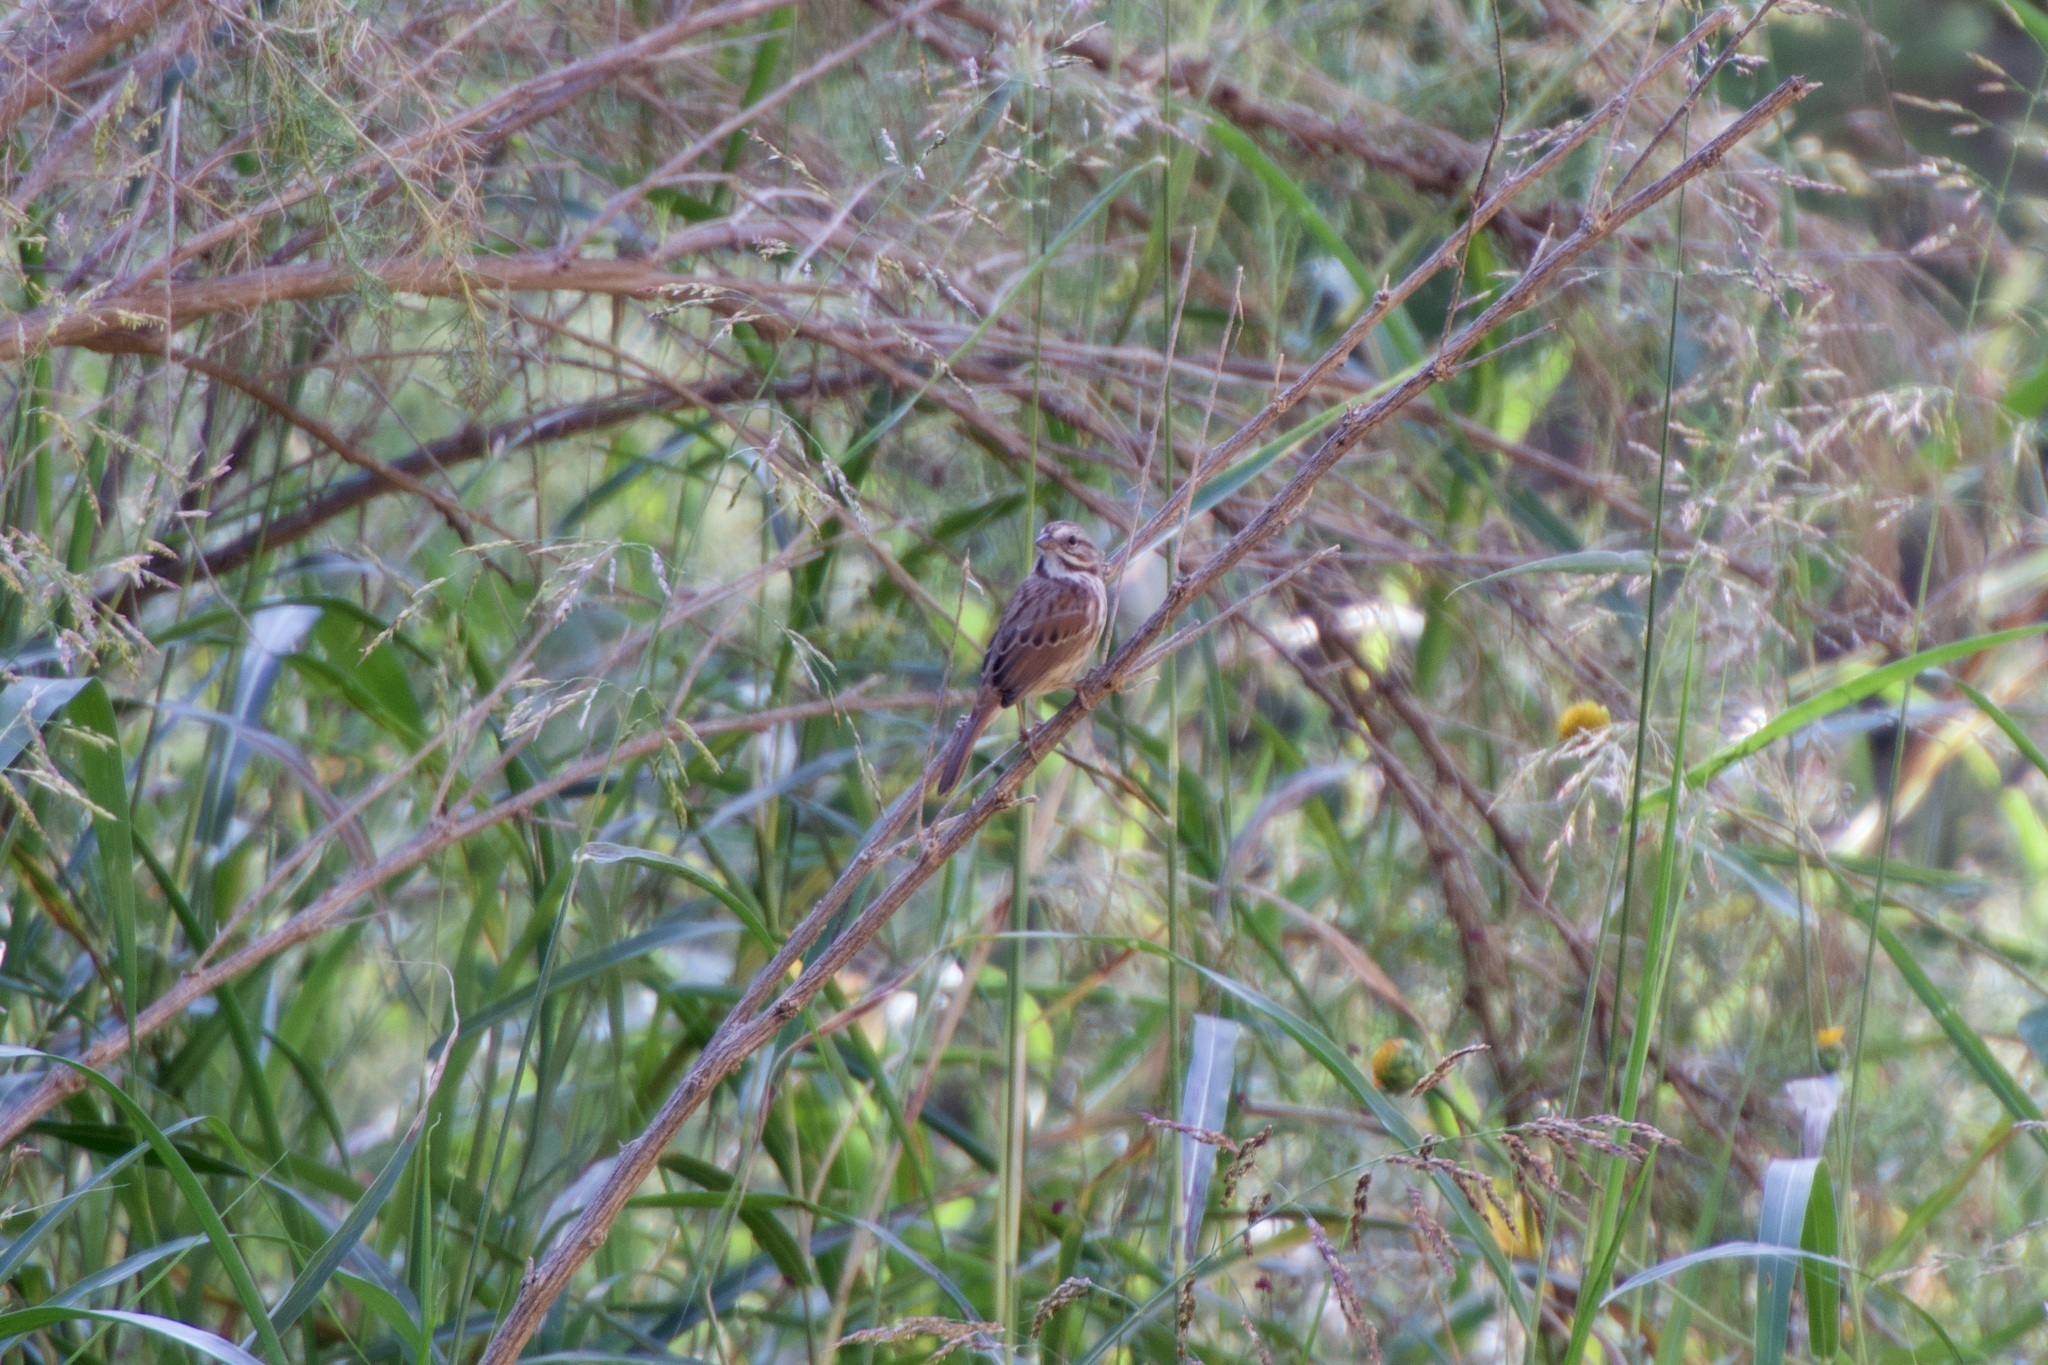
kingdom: Animalia
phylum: Chordata
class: Aves
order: Passeriformes
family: Passerellidae
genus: Melospiza
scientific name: Melospiza melodia
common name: Song sparrow
